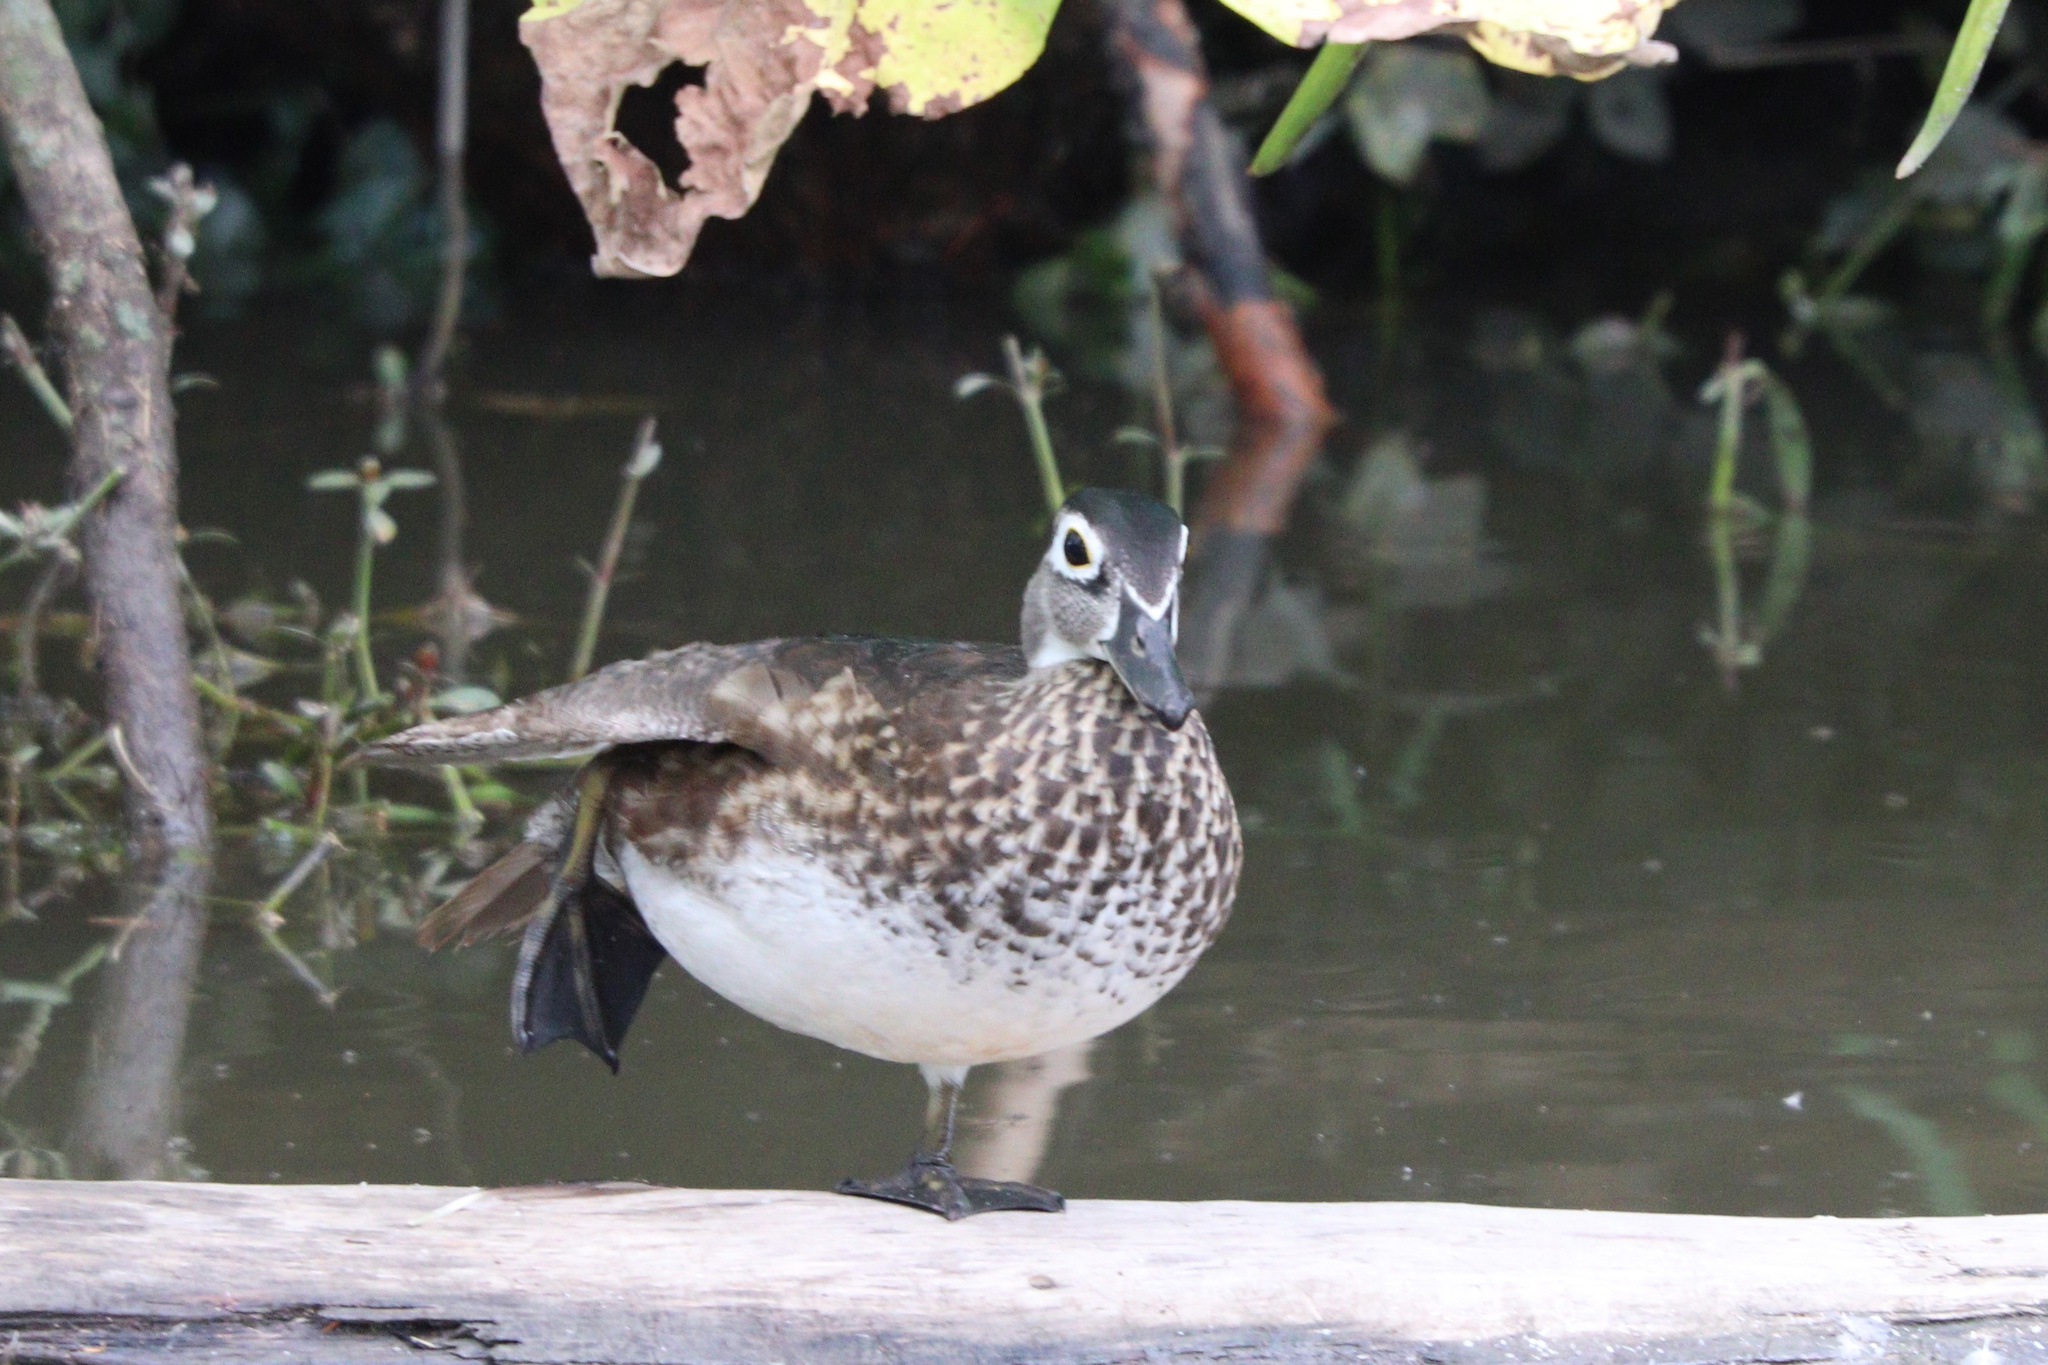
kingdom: Animalia
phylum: Chordata
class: Aves
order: Anseriformes
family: Anatidae
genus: Aix
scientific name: Aix sponsa
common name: Wood duck
